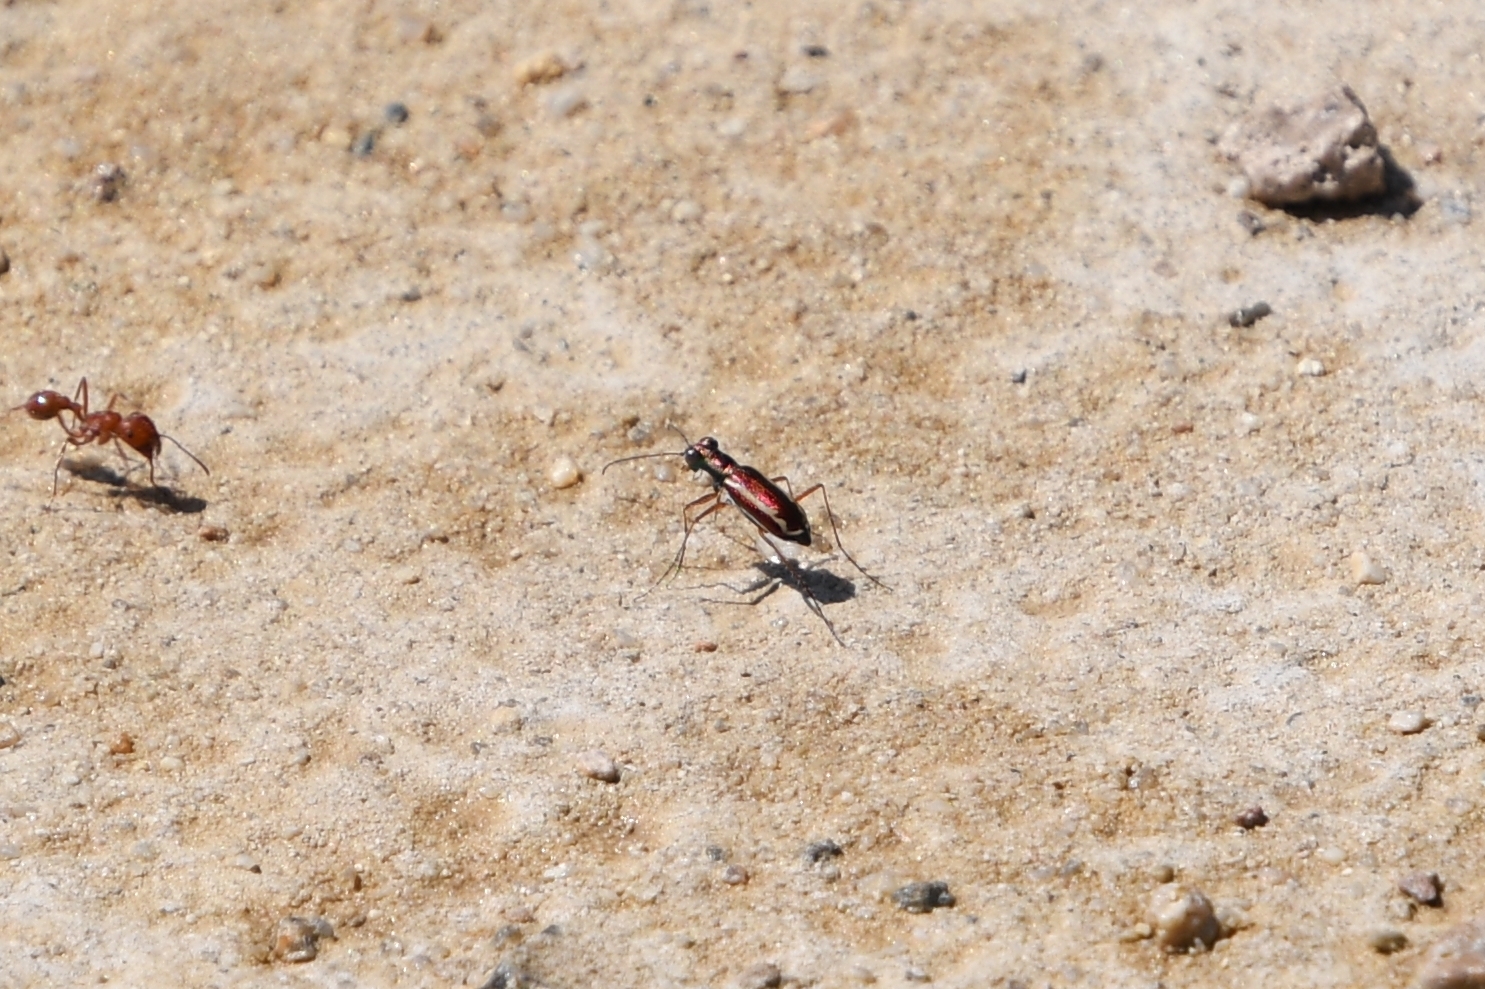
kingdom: Animalia
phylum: Arthropoda
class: Insecta
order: Coleoptera
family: Carabidae
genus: Cylindera
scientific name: Cylindera lemniscata
